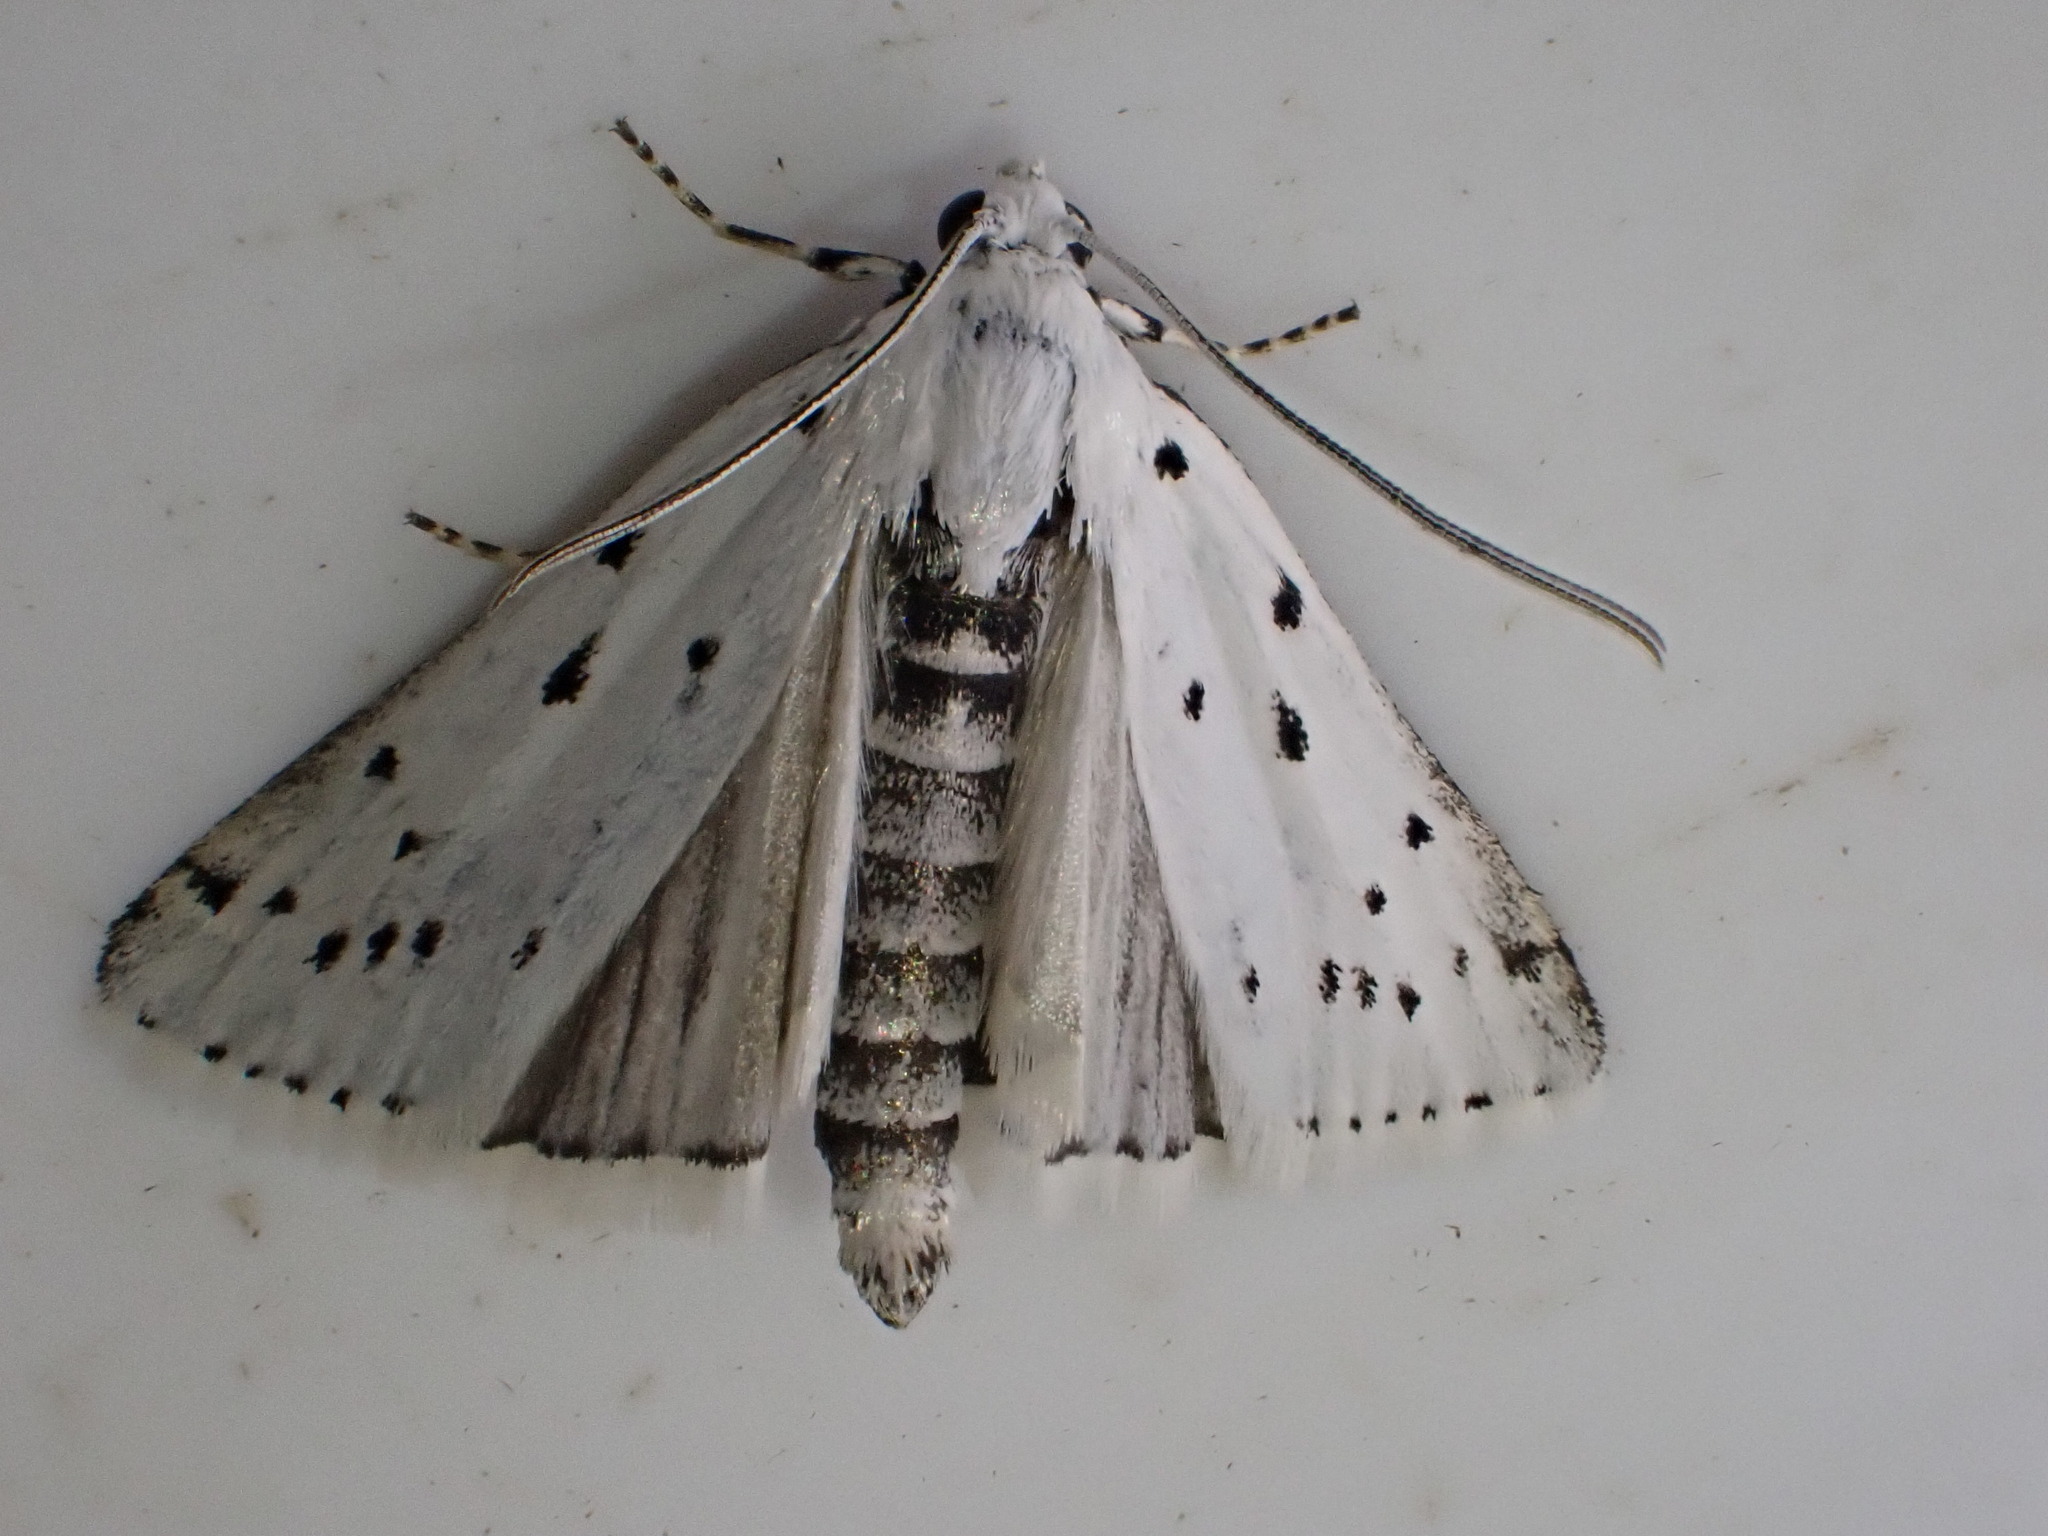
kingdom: Animalia
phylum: Arthropoda
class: Insecta
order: Lepidoptera
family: Pyralidae
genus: Myelois
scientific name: Myelois circumvoluta
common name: Thistle ermine
